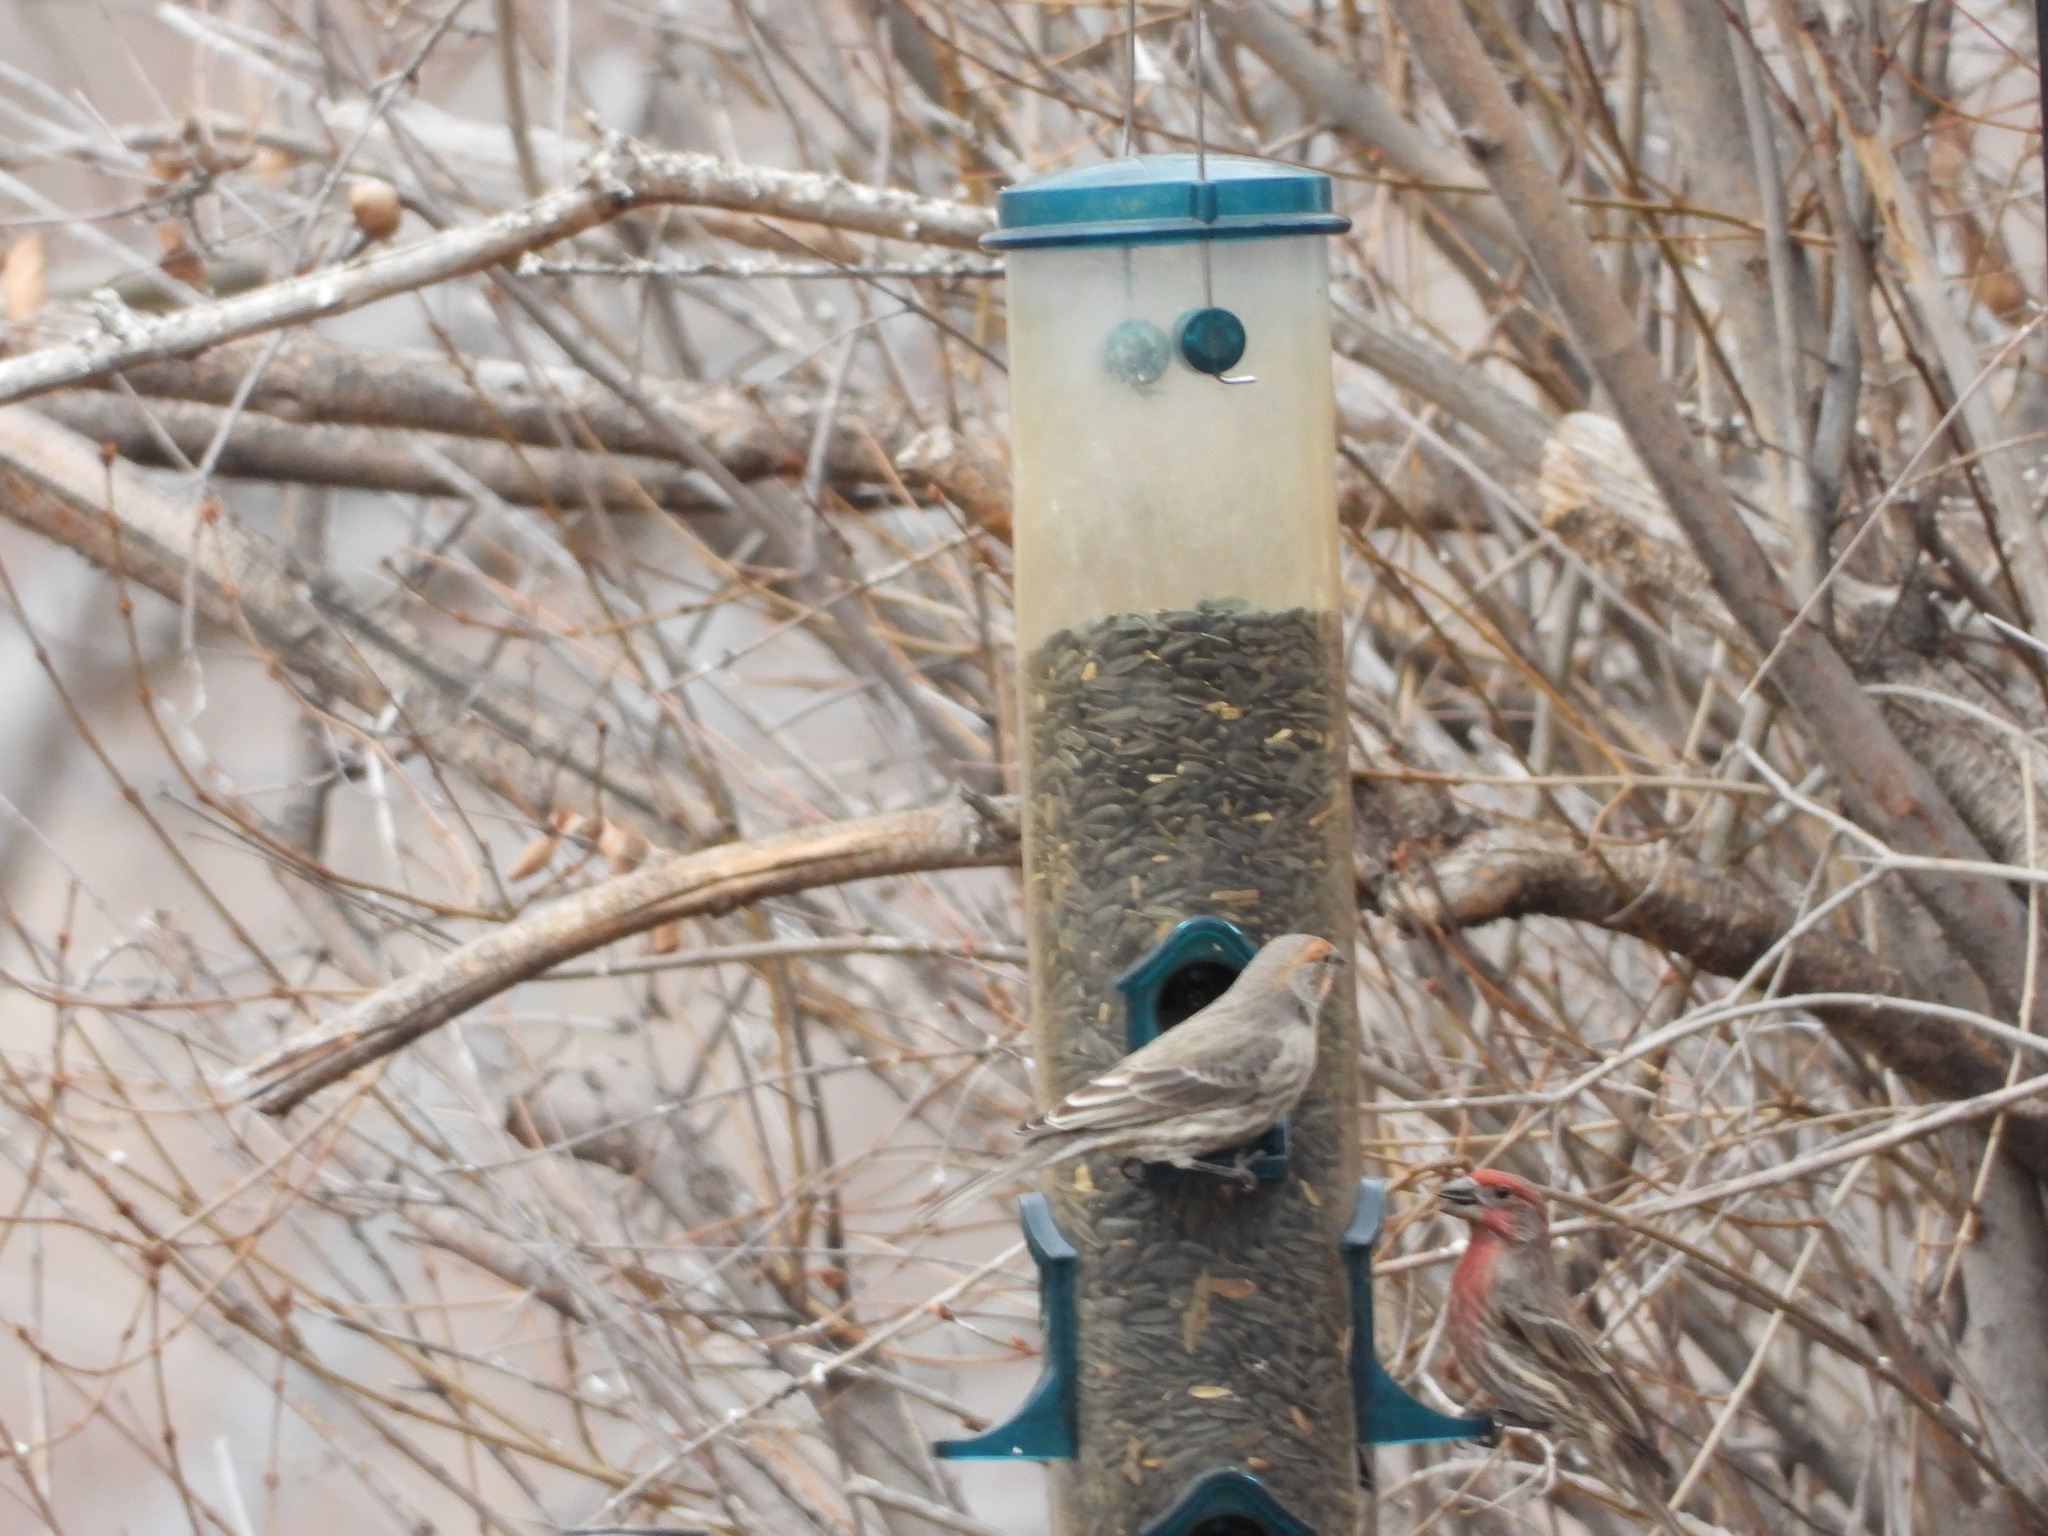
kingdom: Animalia
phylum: Chordata
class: Aves
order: Passeriformes
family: Fringillidae
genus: Haemorhous
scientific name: Haemorhous mexicanus
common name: House finch
